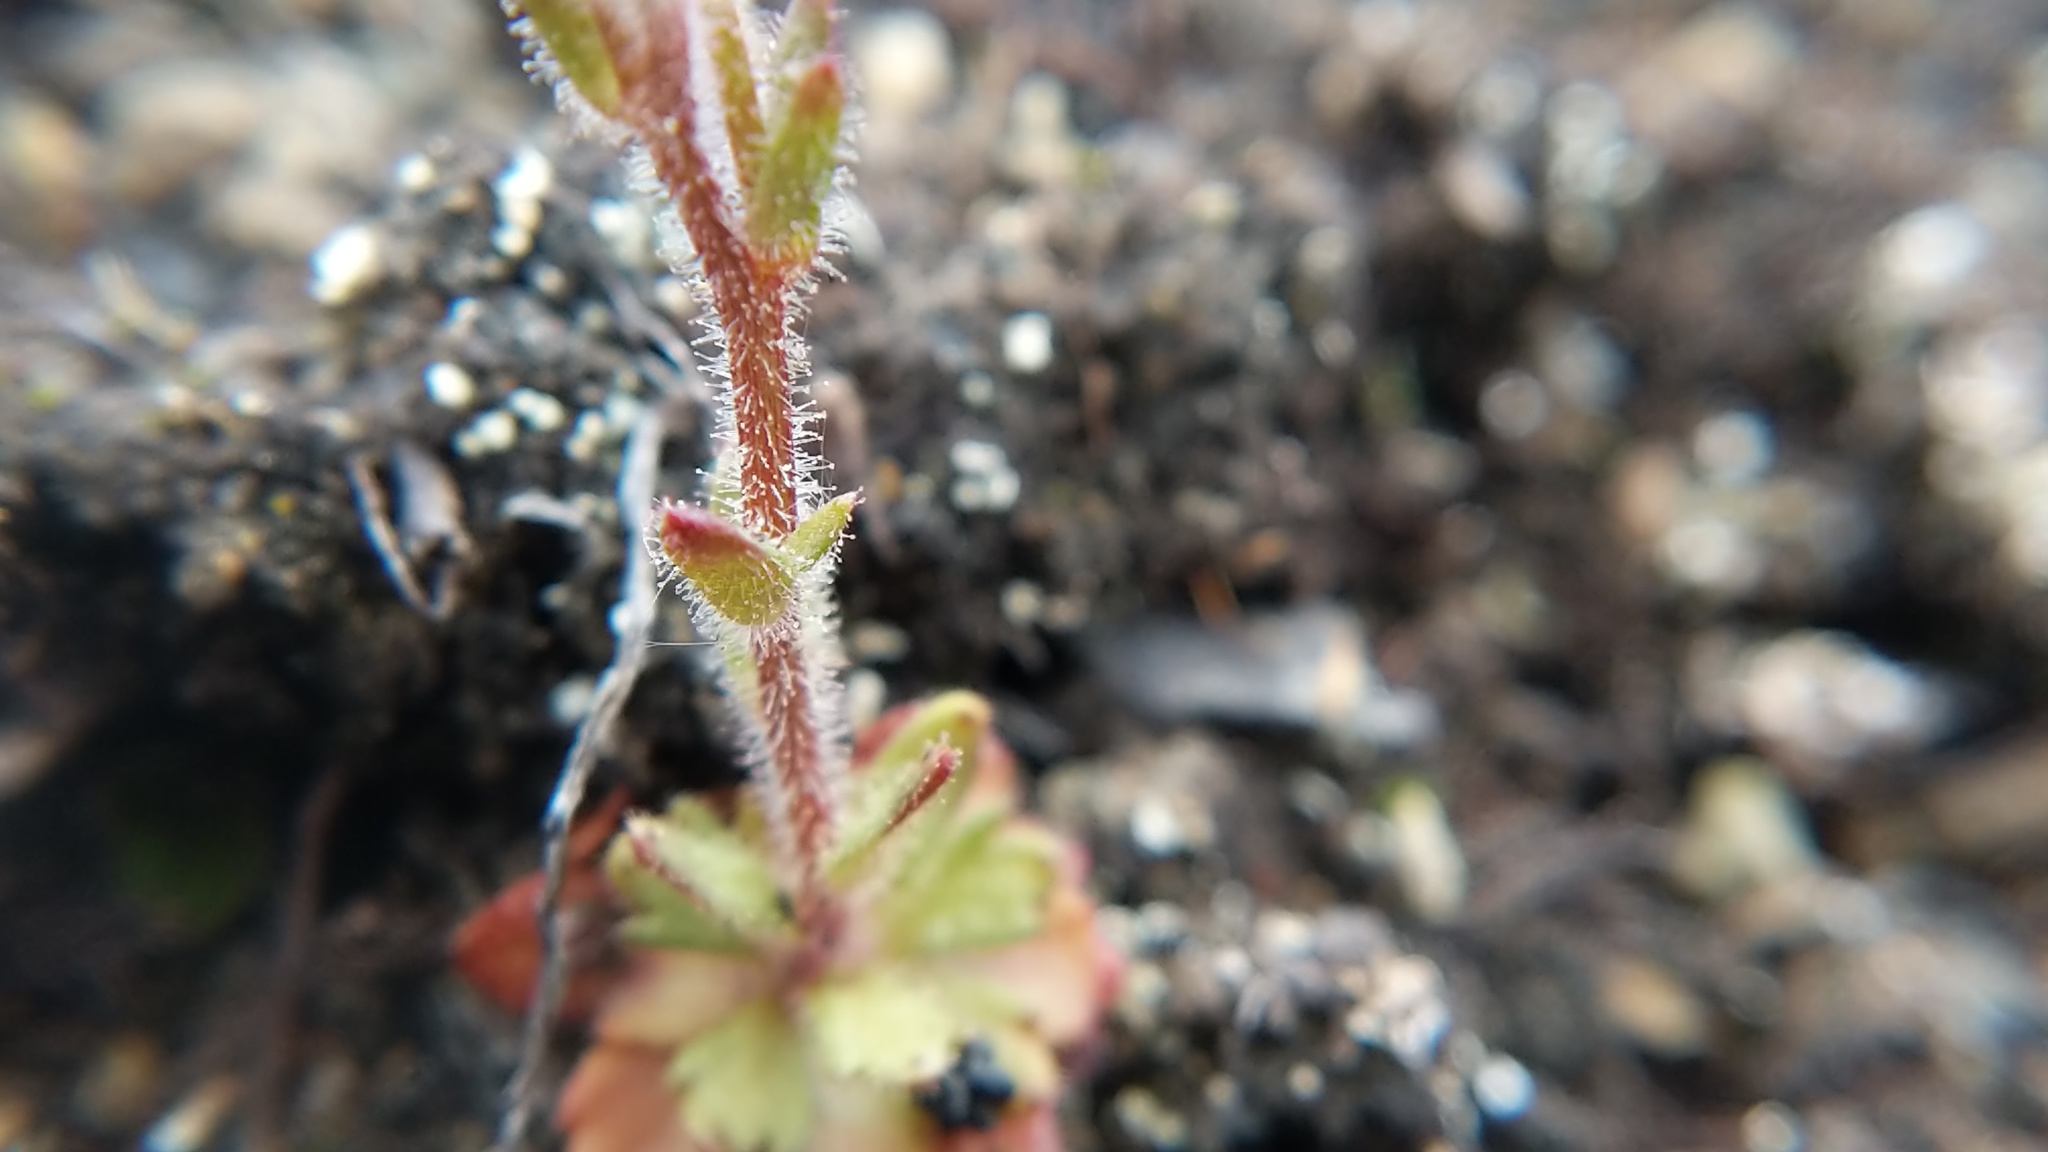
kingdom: Plantae
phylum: Tracheophyta
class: Magnoliopsida
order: Saxifragales
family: Saxifragaceae
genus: Saxifraga
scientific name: Saxifraga adscendens
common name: Ascending saxifrage
